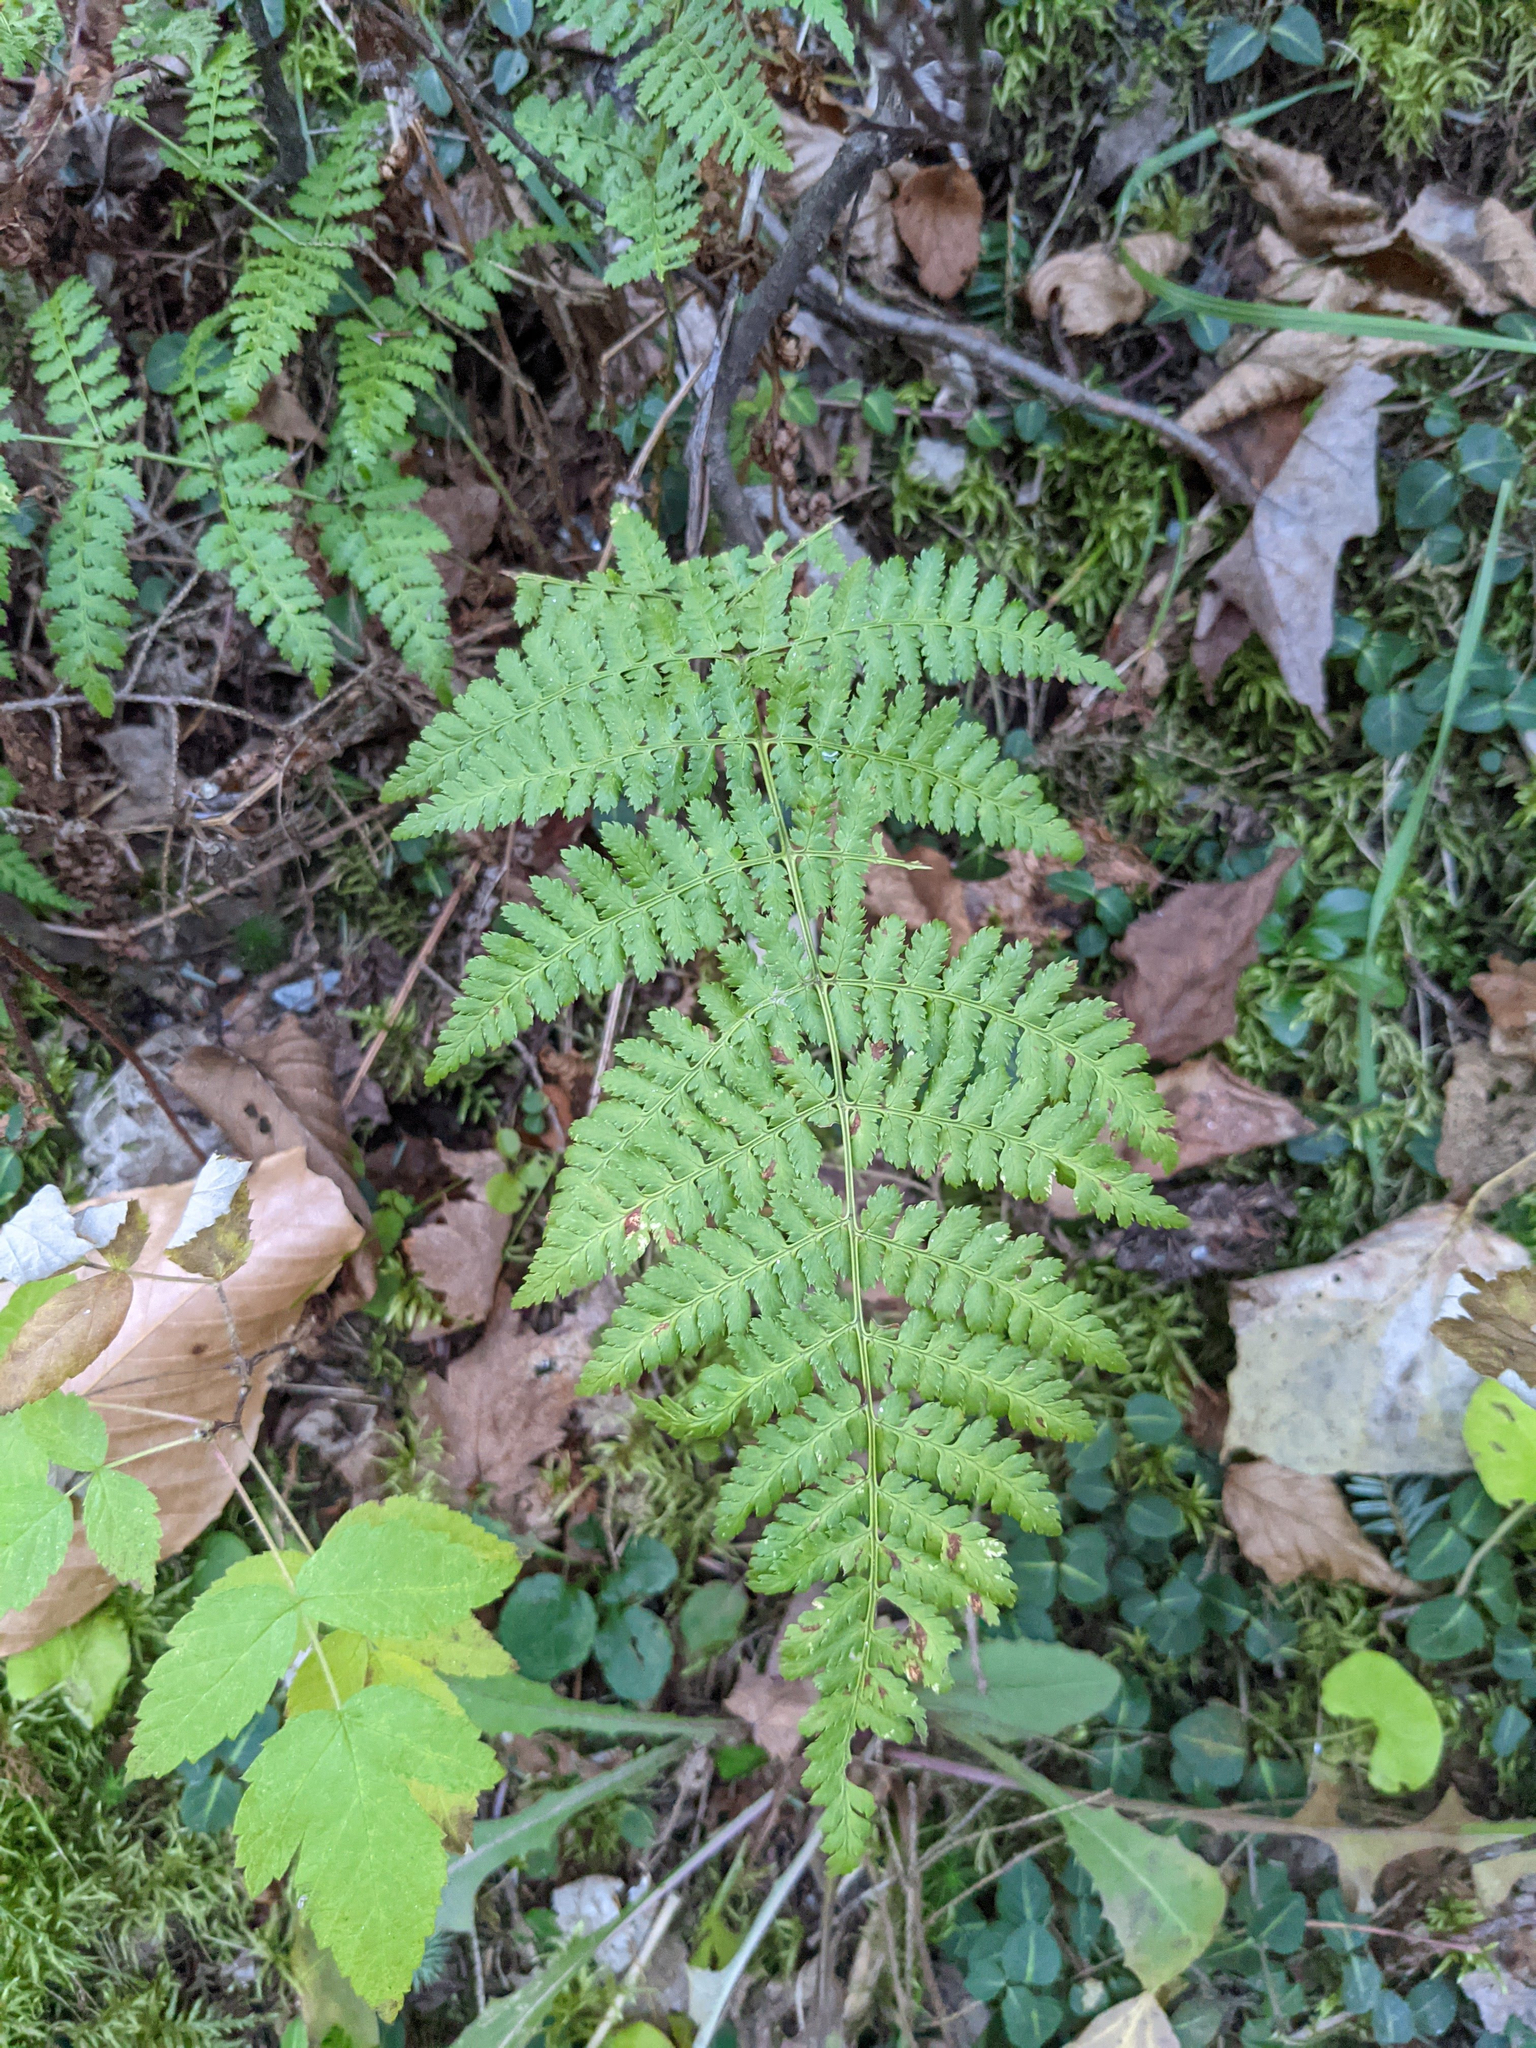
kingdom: Plantae
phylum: Tracheophyta
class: Polypodiopsida
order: Polypodiales
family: Dryopteridaceae
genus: Dryopteris
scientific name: Dryopteris intermedia
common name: Evergreen wood fern
